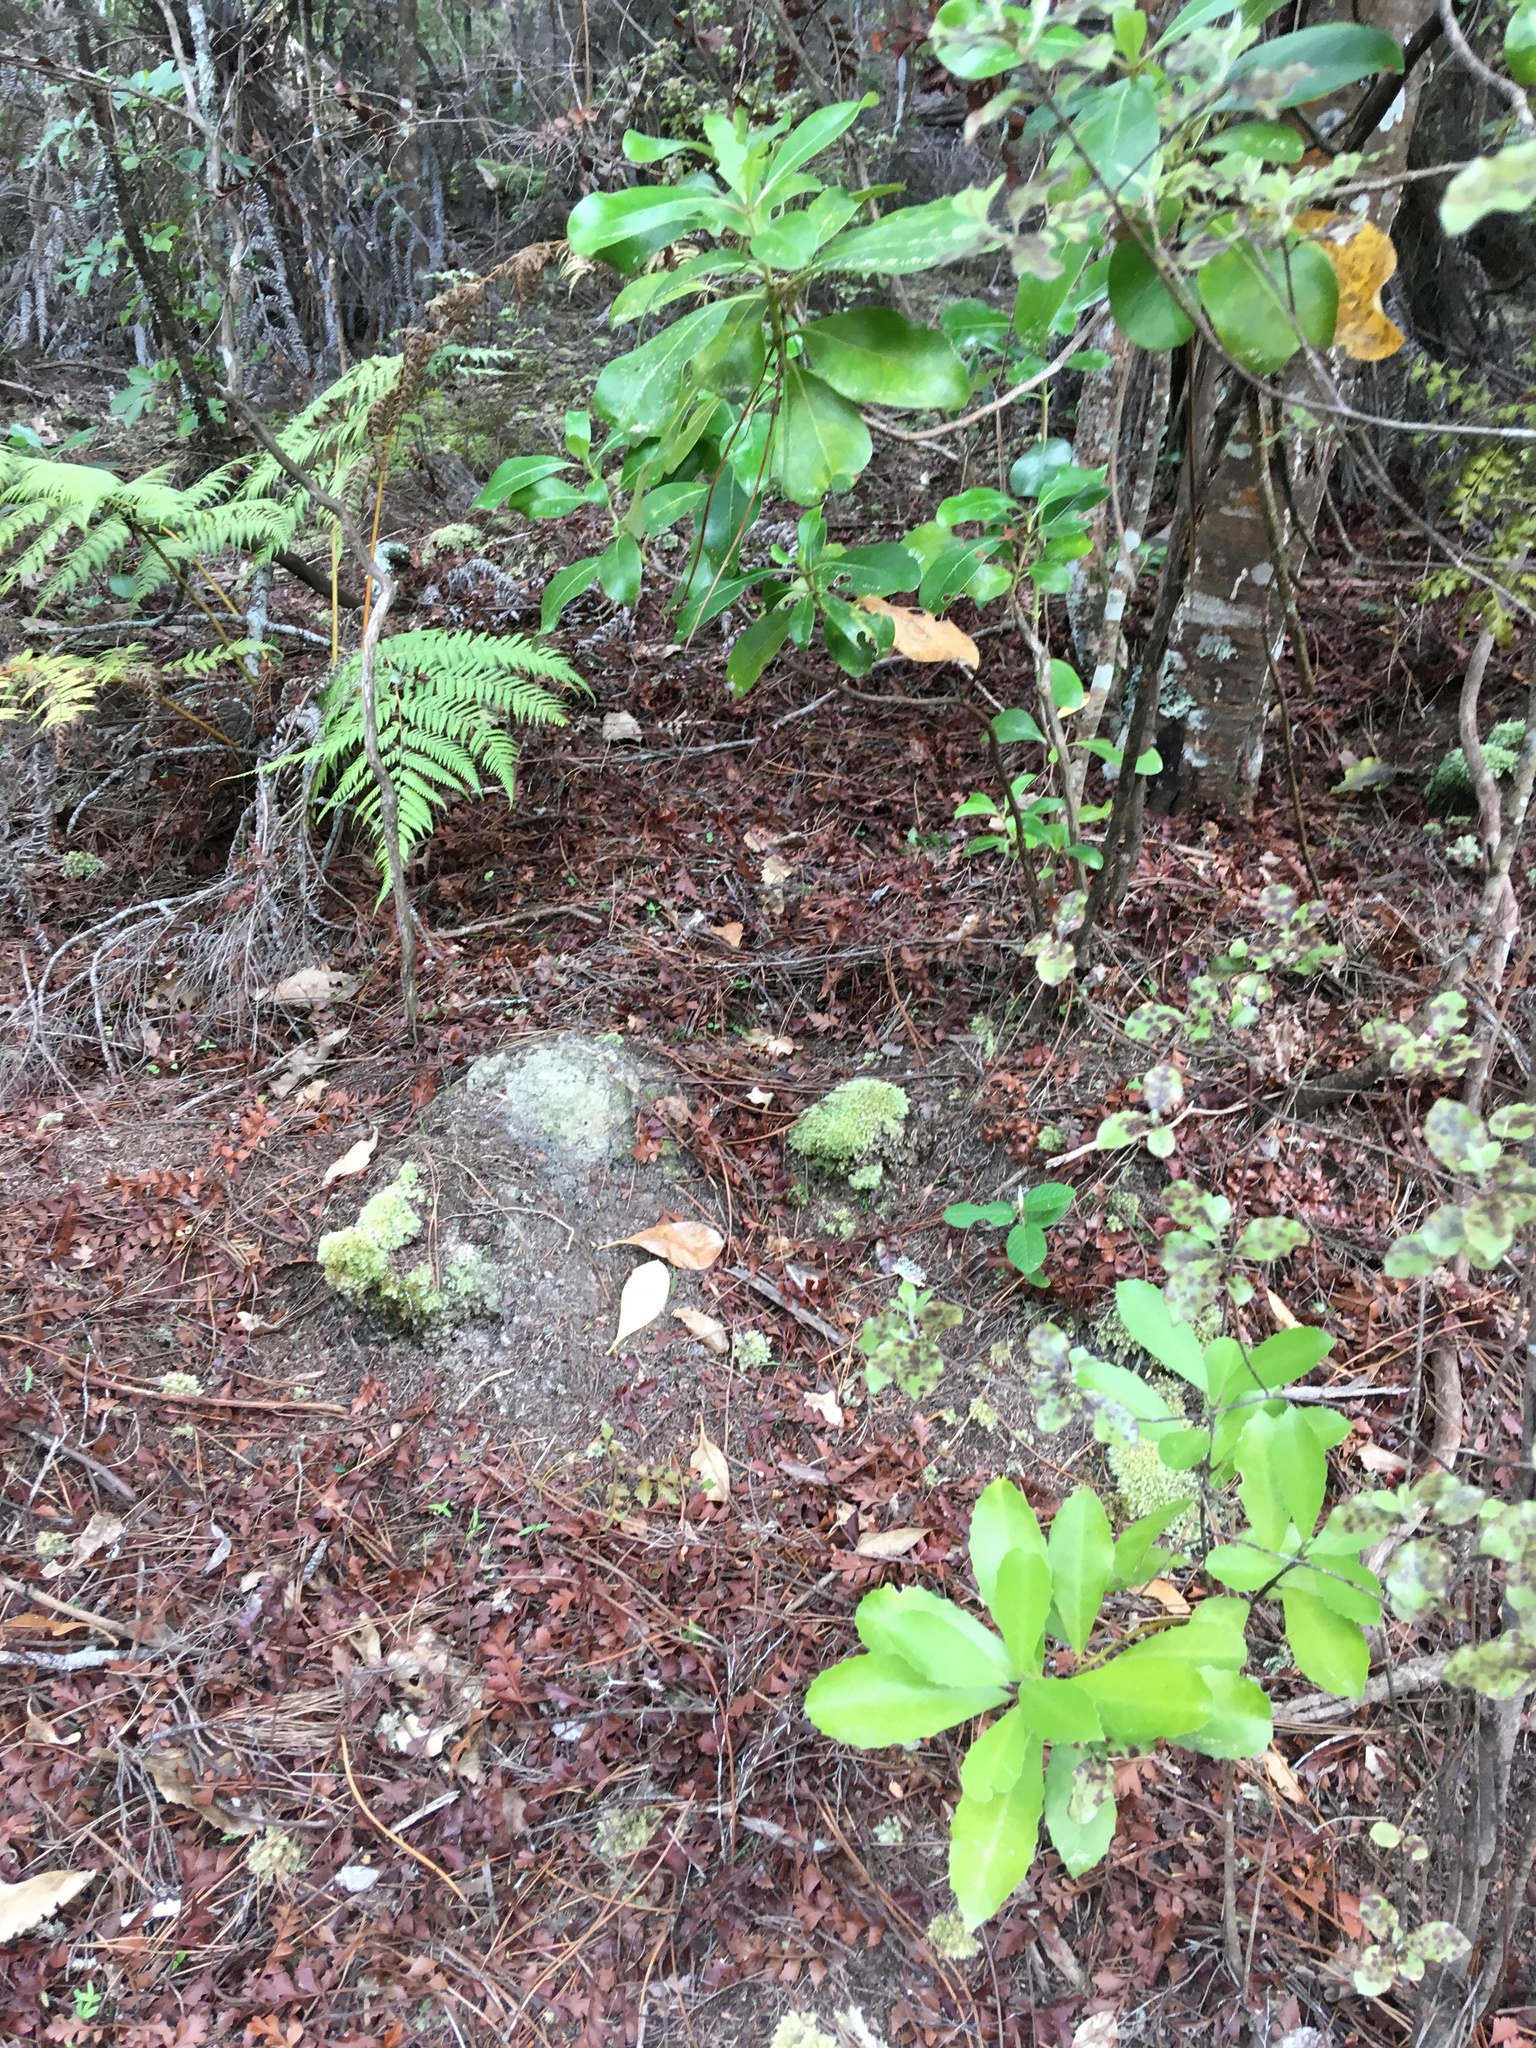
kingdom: Plantae
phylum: Tracheophyta
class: Magnoliopsida
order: Laurales
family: Monimiaceae
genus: Hedycarya
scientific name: Hedycarya arborea
